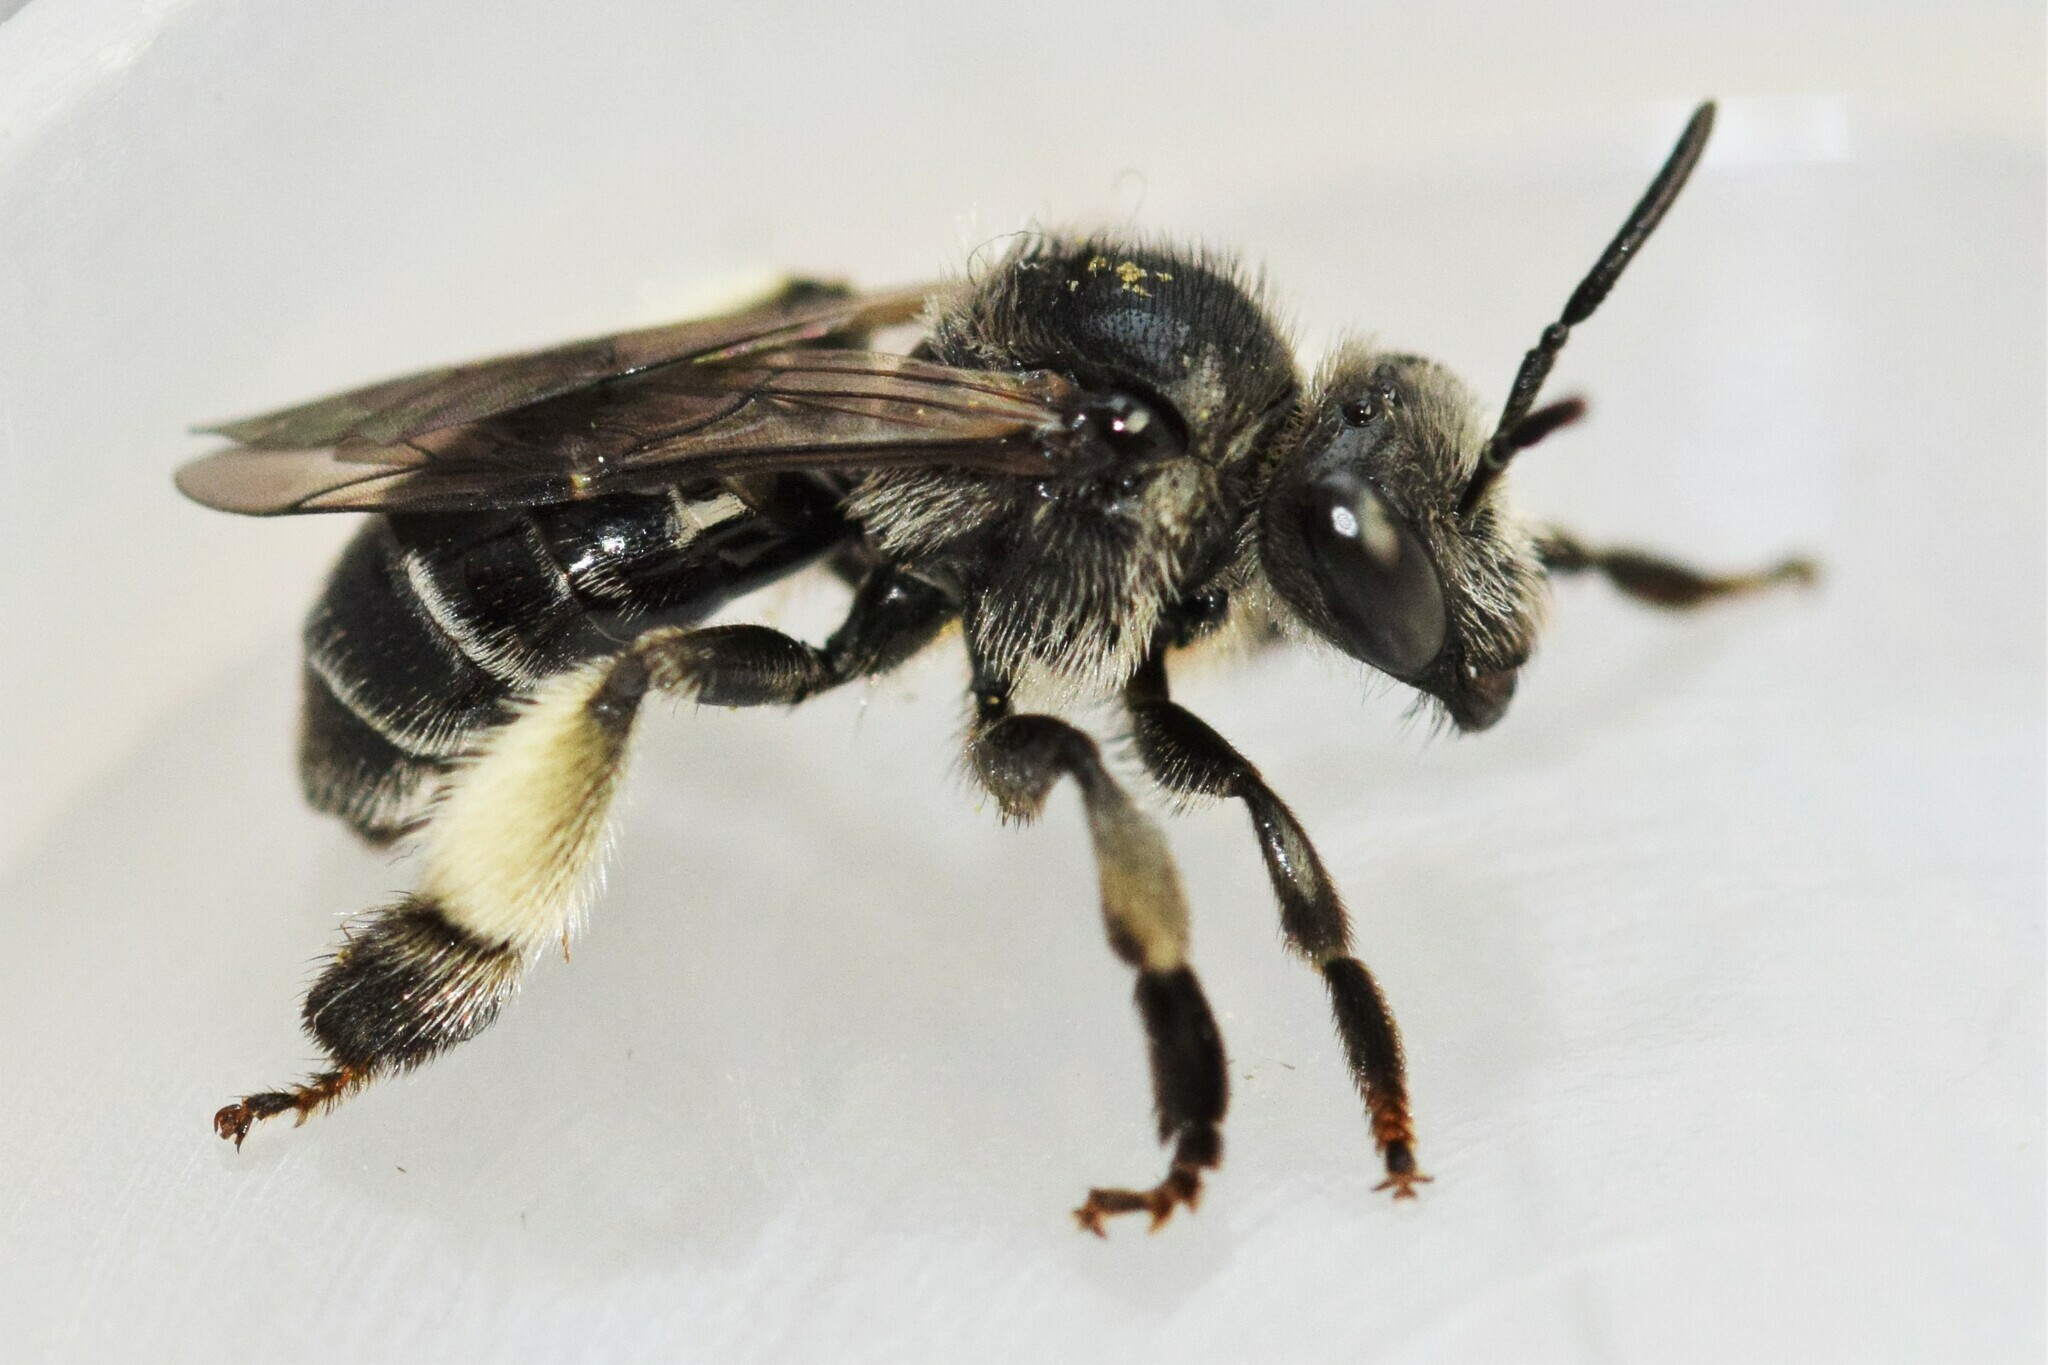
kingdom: Animalia
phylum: Arthropoda
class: Insecta
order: Hymenoptera
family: Melittidae
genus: Macropis
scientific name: Macropis nuda
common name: Dark-legged yellow loosestrife bee
